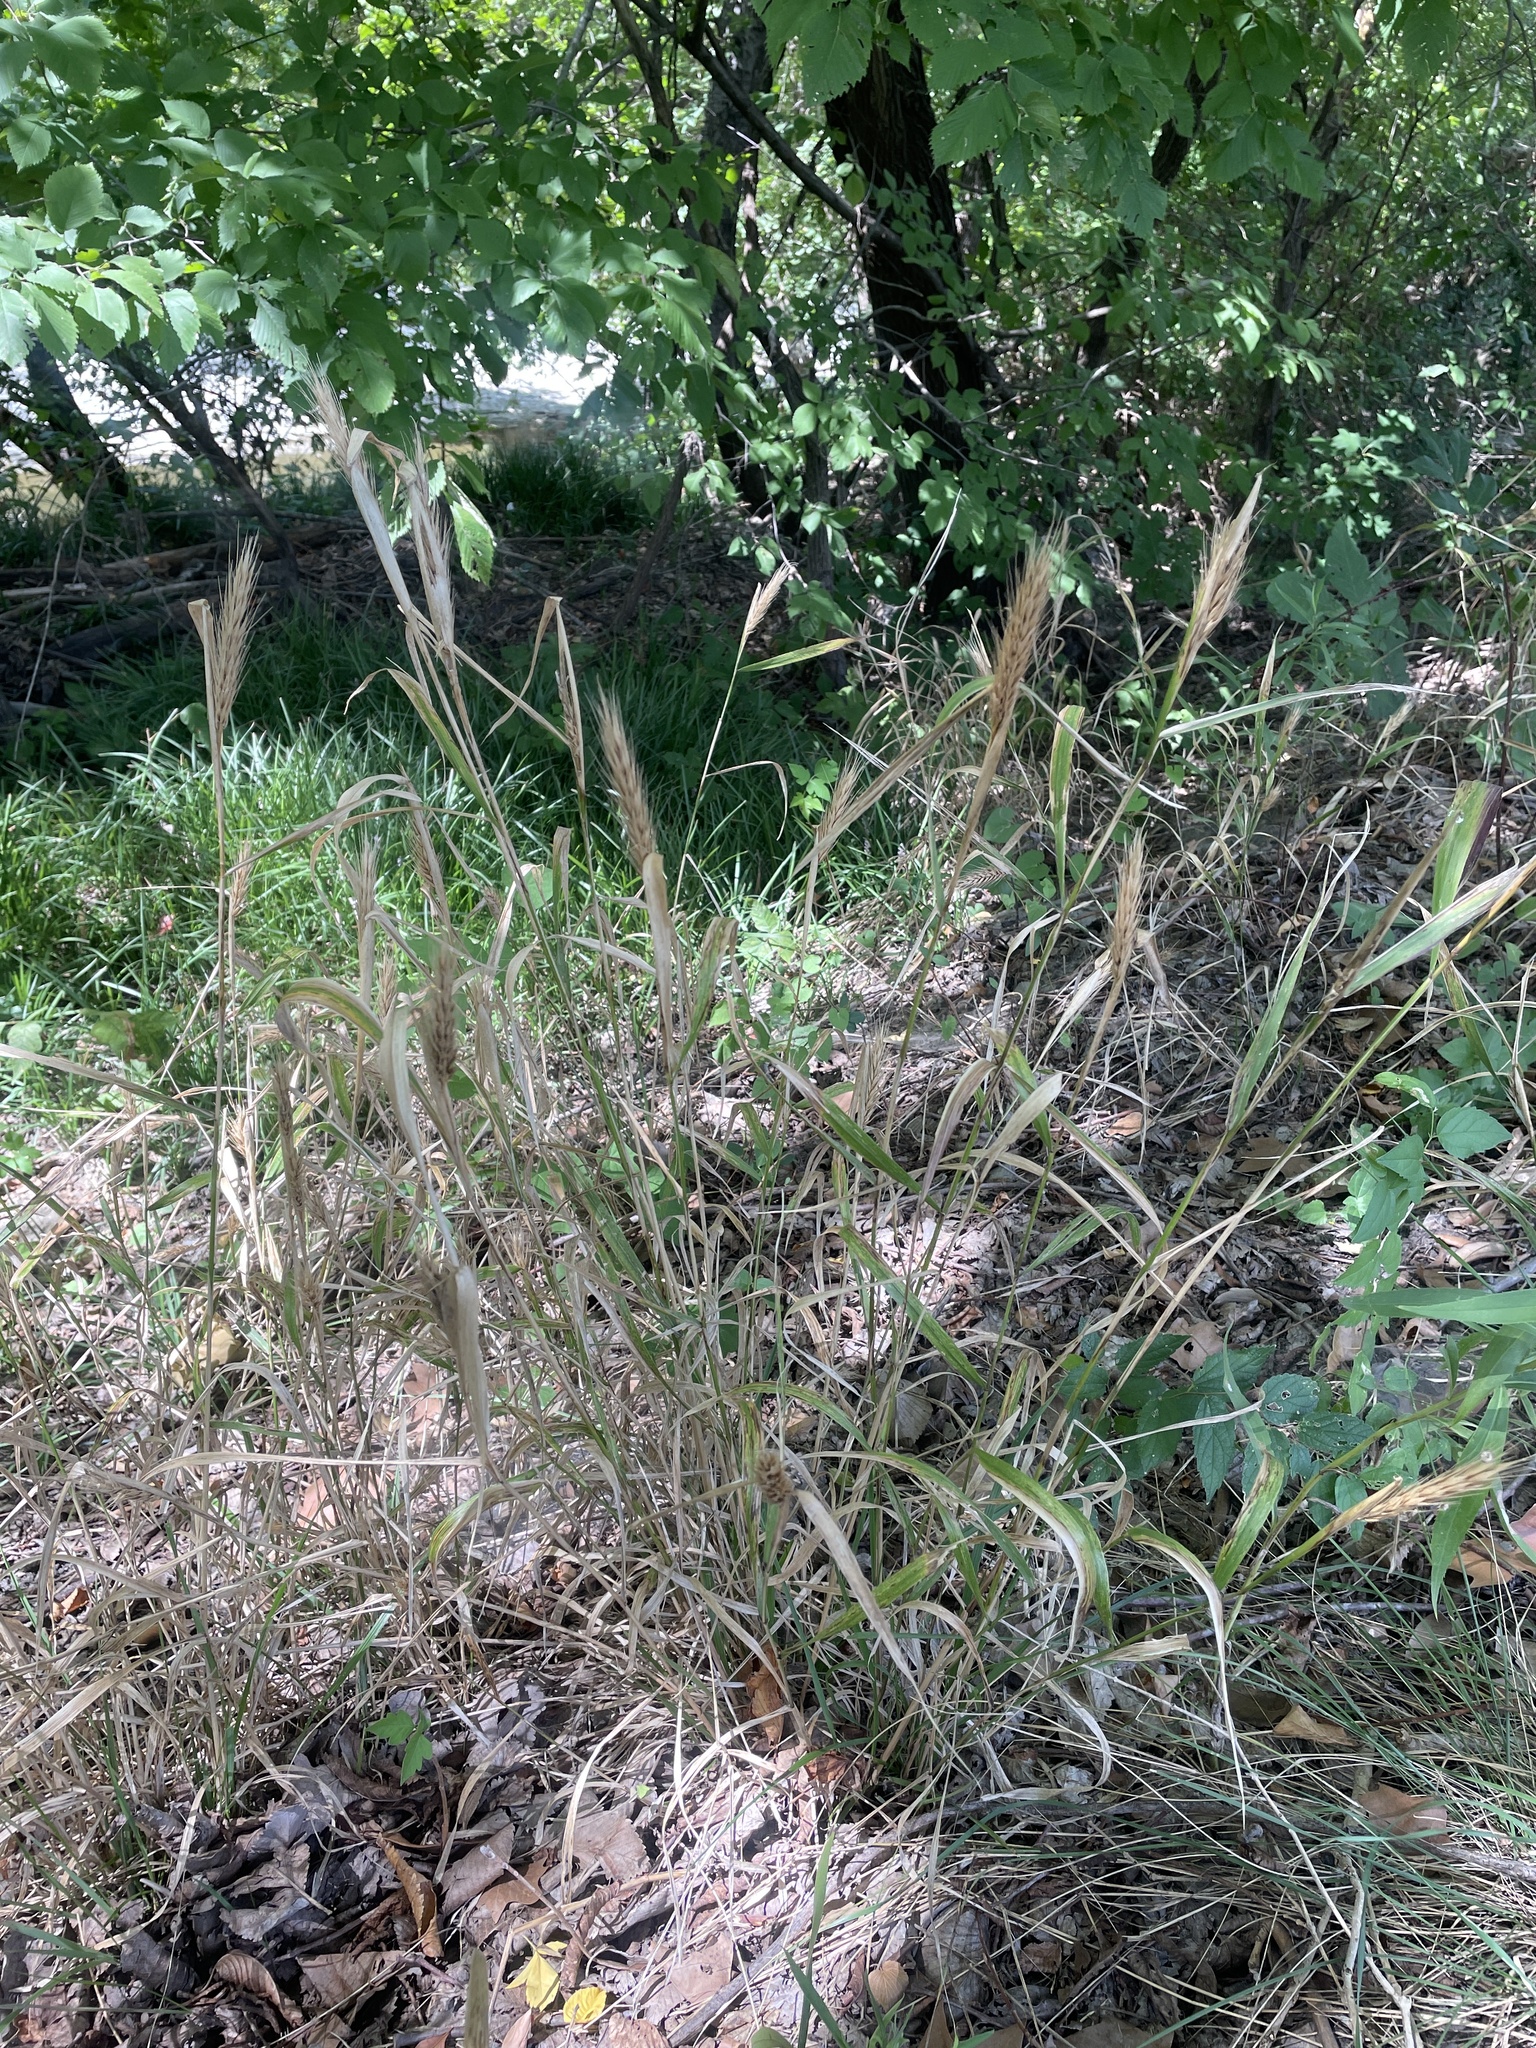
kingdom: Plantae
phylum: Tracheophyta
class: Liliopsida
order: Poales
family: Poaceae
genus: Elymus
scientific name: Elymus virginicus
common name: Common eastern wildrye
